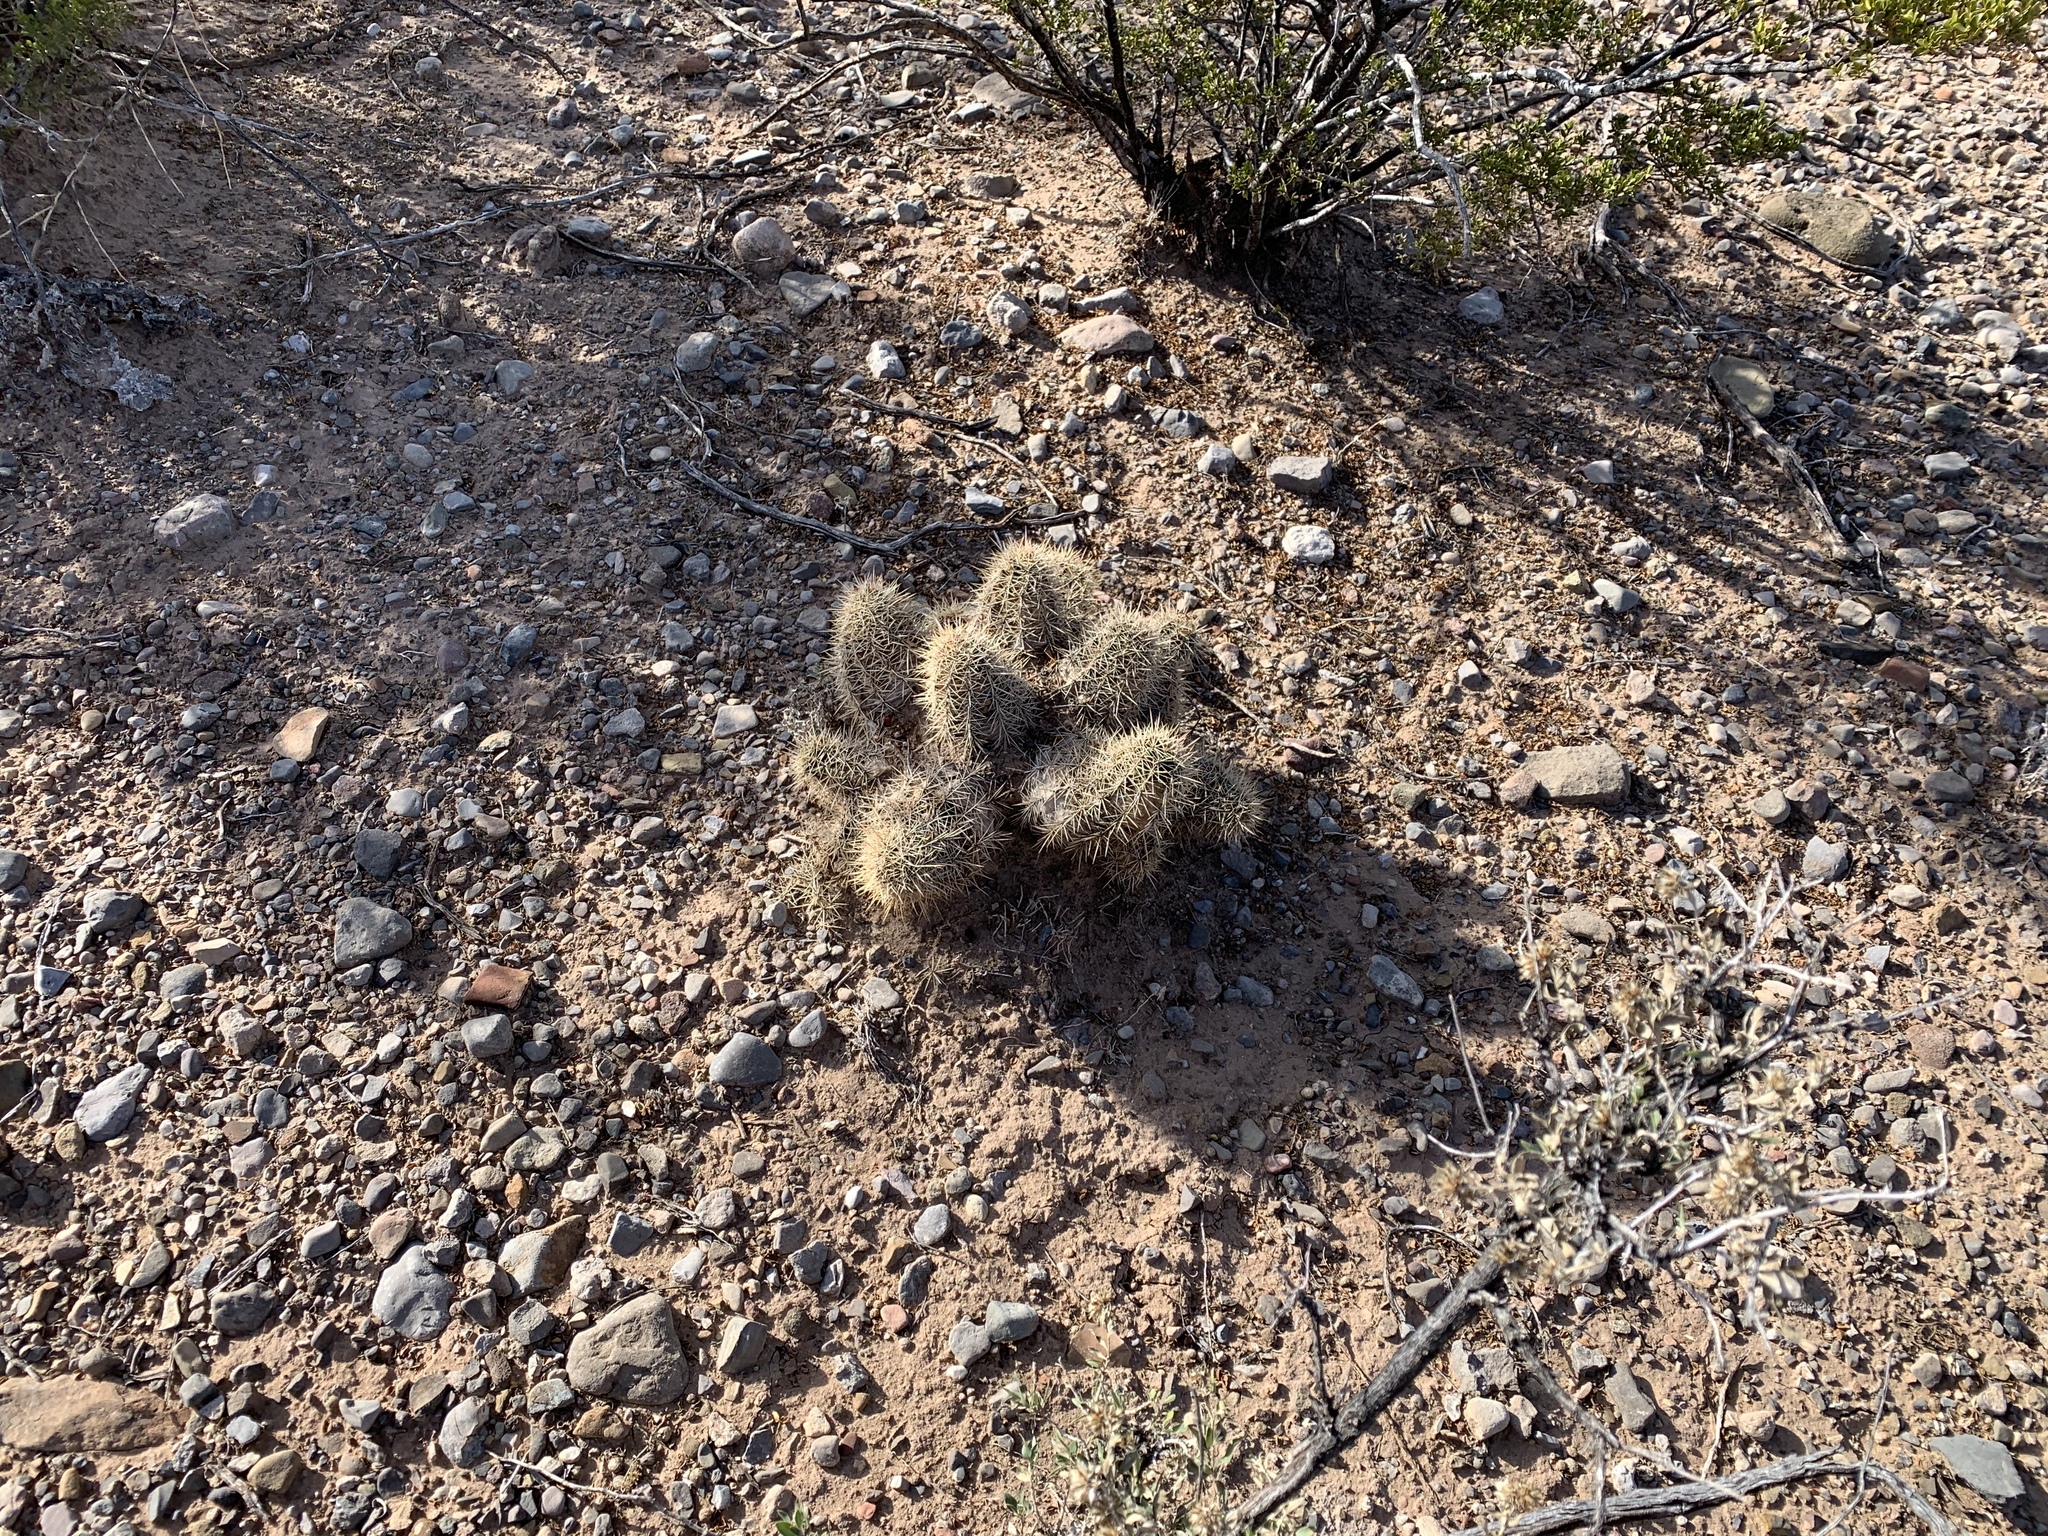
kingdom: Plantae
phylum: Tracheophyta
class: Magnoliopsida
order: Caryophyllales
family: Cactaceae
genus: Echinocereus
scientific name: Echinocereus coccineus
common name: Scarlet hedgehog cactus
